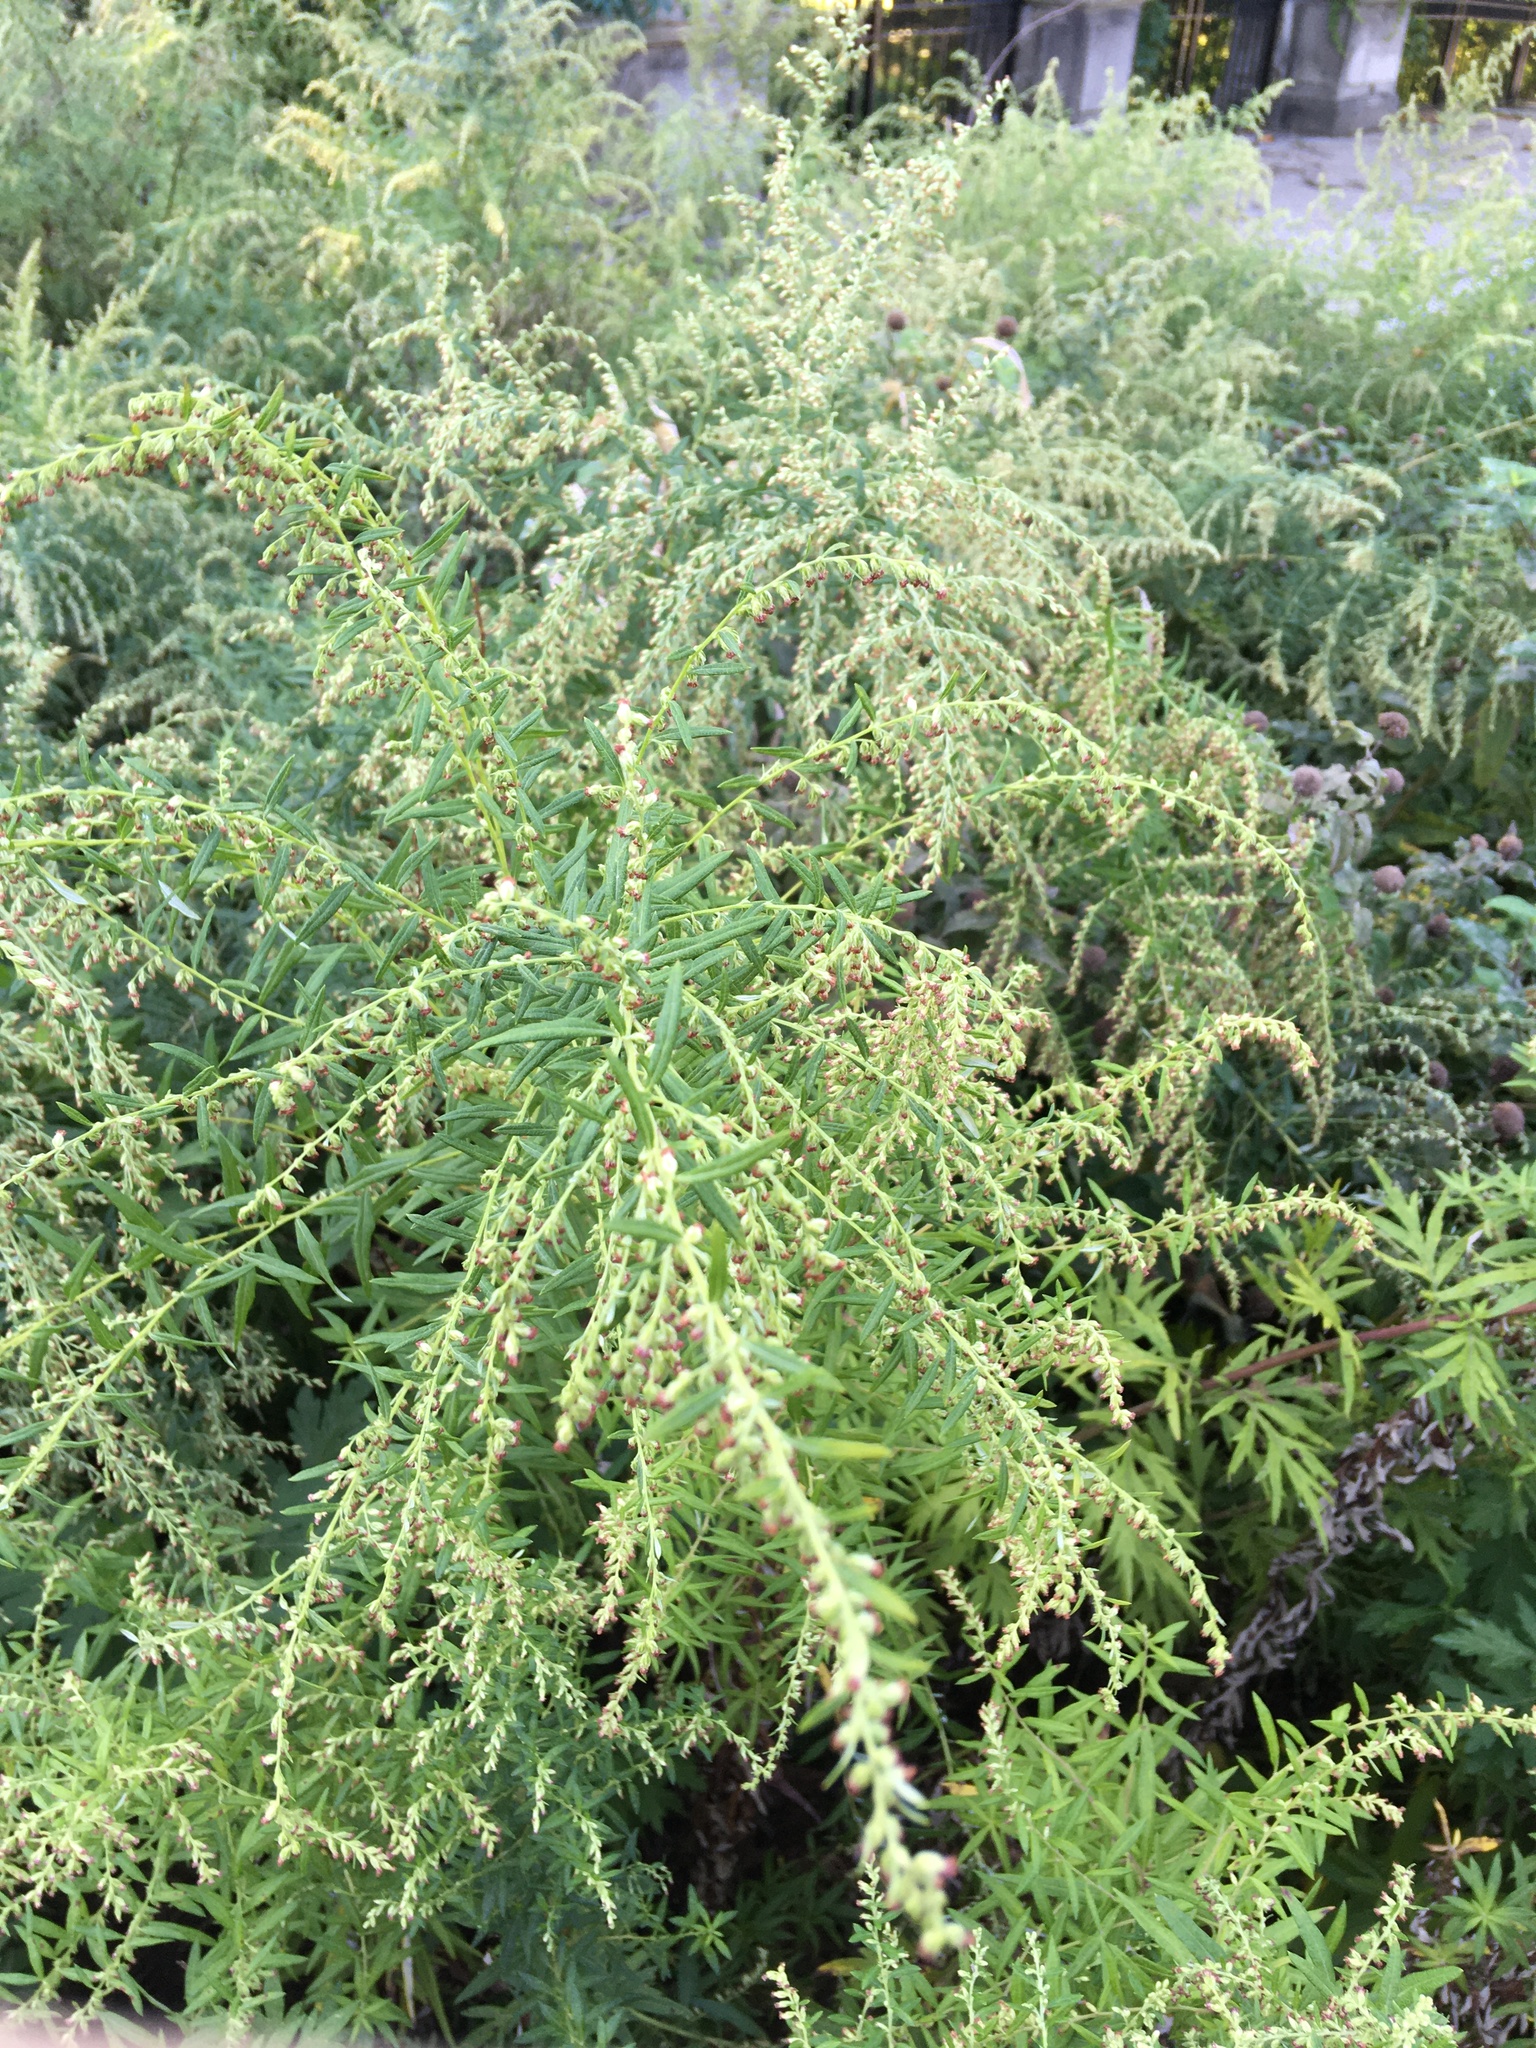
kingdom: Plantae
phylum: Tracheophyta
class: Magnoliopsida
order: Asterales
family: Asteraceae
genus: Artemisia
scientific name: Artemisia vulgaris
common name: Mugwort
